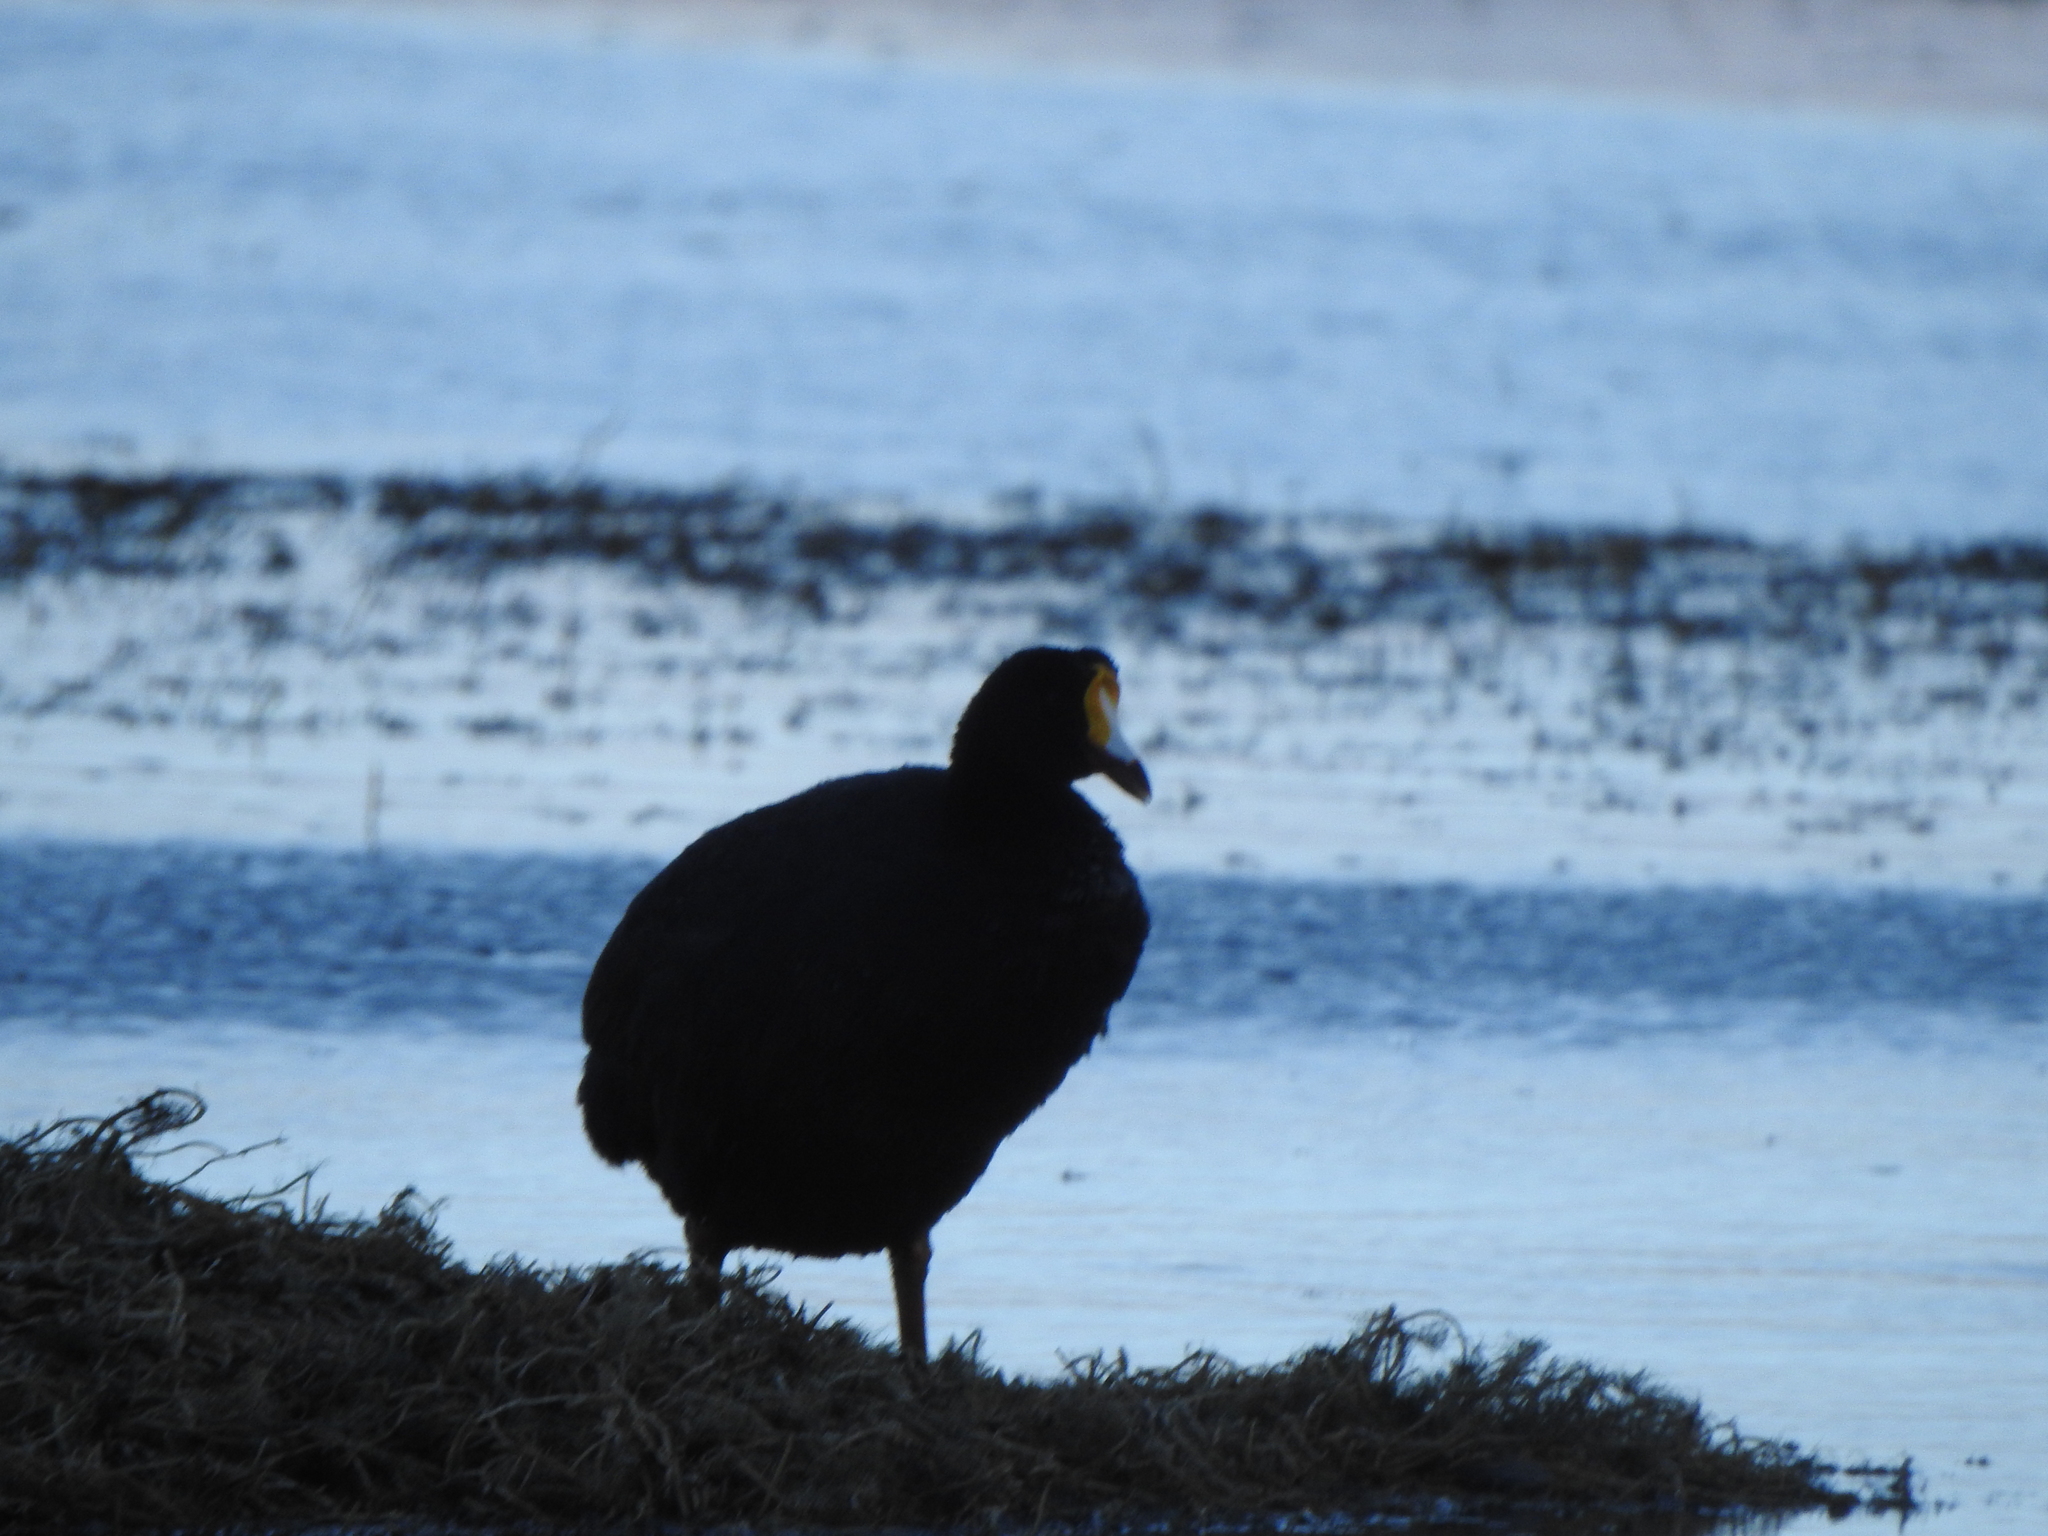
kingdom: Animalia
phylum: Chordata
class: Aves
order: Gruiformes
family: Rallidae
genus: Fulica
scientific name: Fulica gigantea
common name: Giant coot
